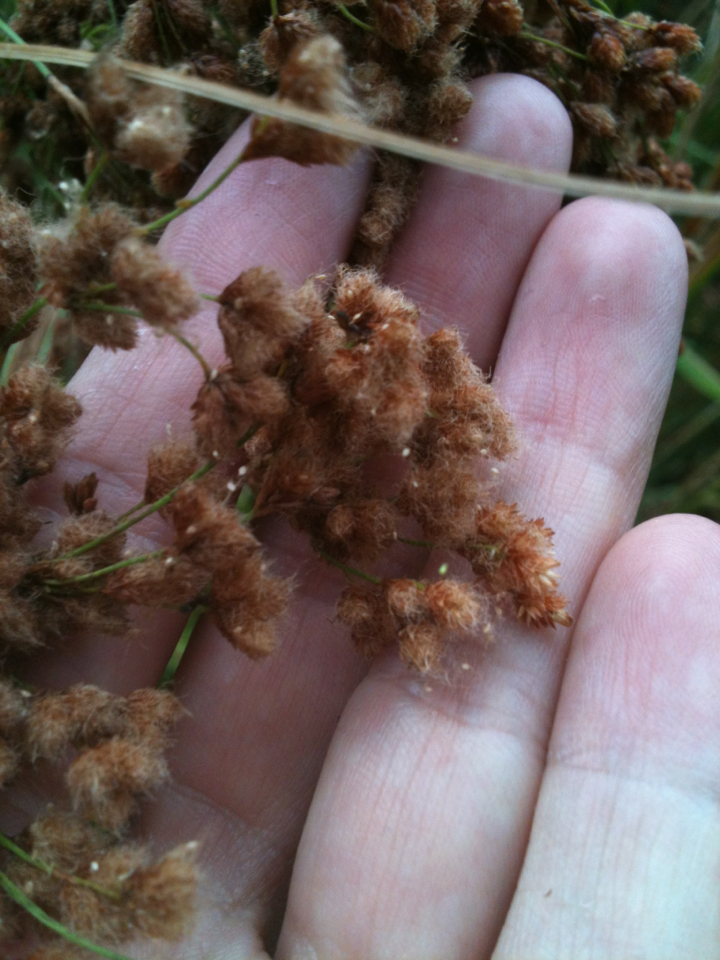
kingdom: Plantae
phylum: Tracheophyta
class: Liliopsida
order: Poales
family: Cyperaceae
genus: Scirpus
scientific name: Scirpus cyperinus
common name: Black-sheathed bulrush
